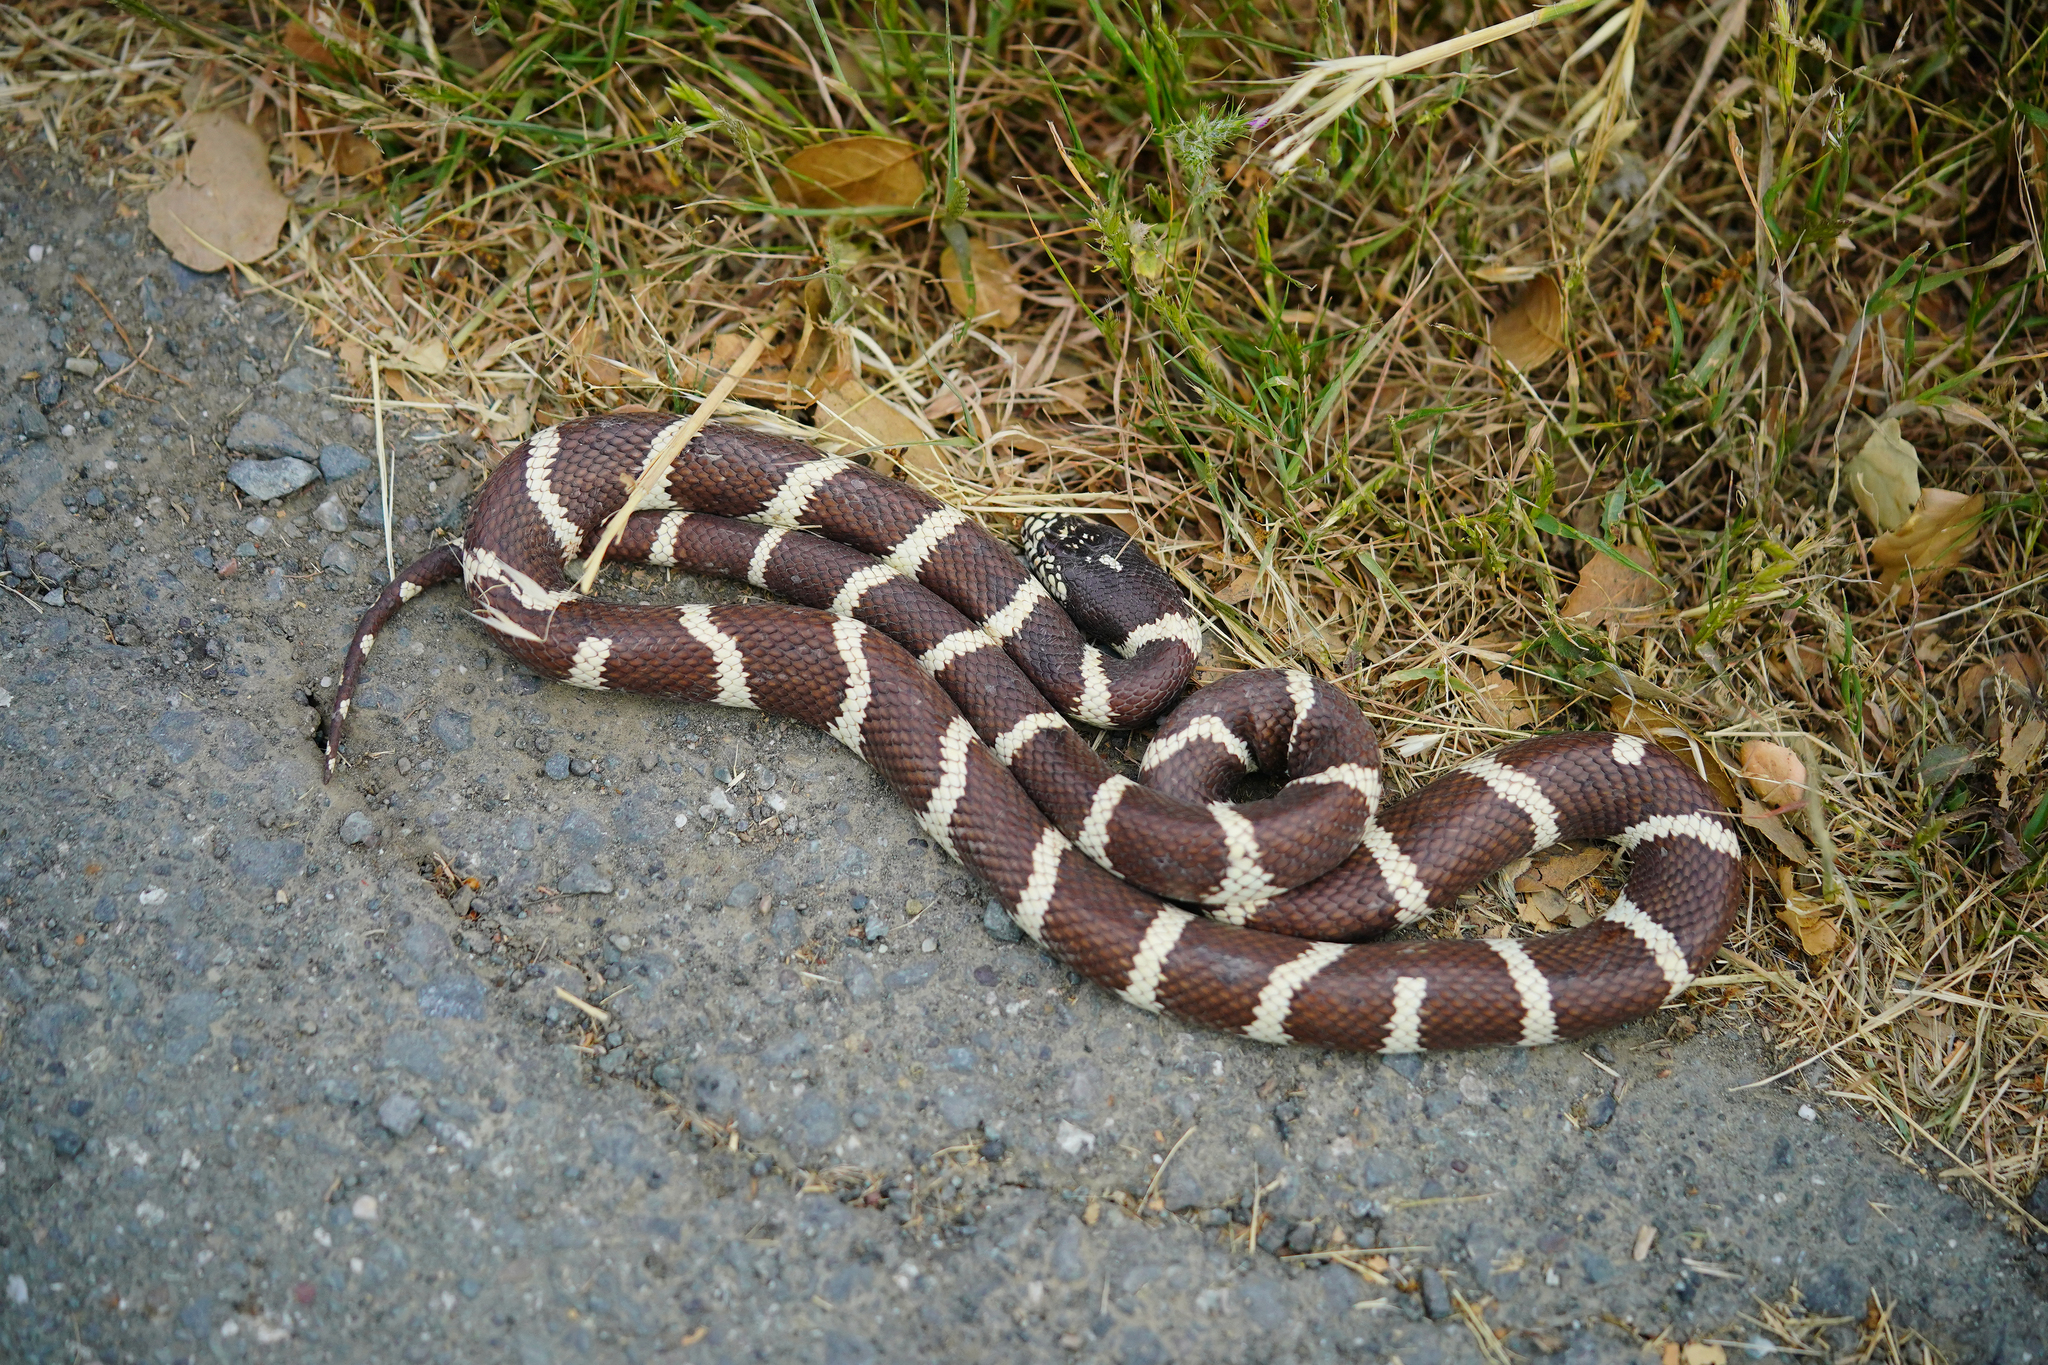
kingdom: Animalia
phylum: Chordata
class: Squamata
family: Colubridae
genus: Lampropeltis
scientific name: Lampropeltis californiae
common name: California kingsnake
